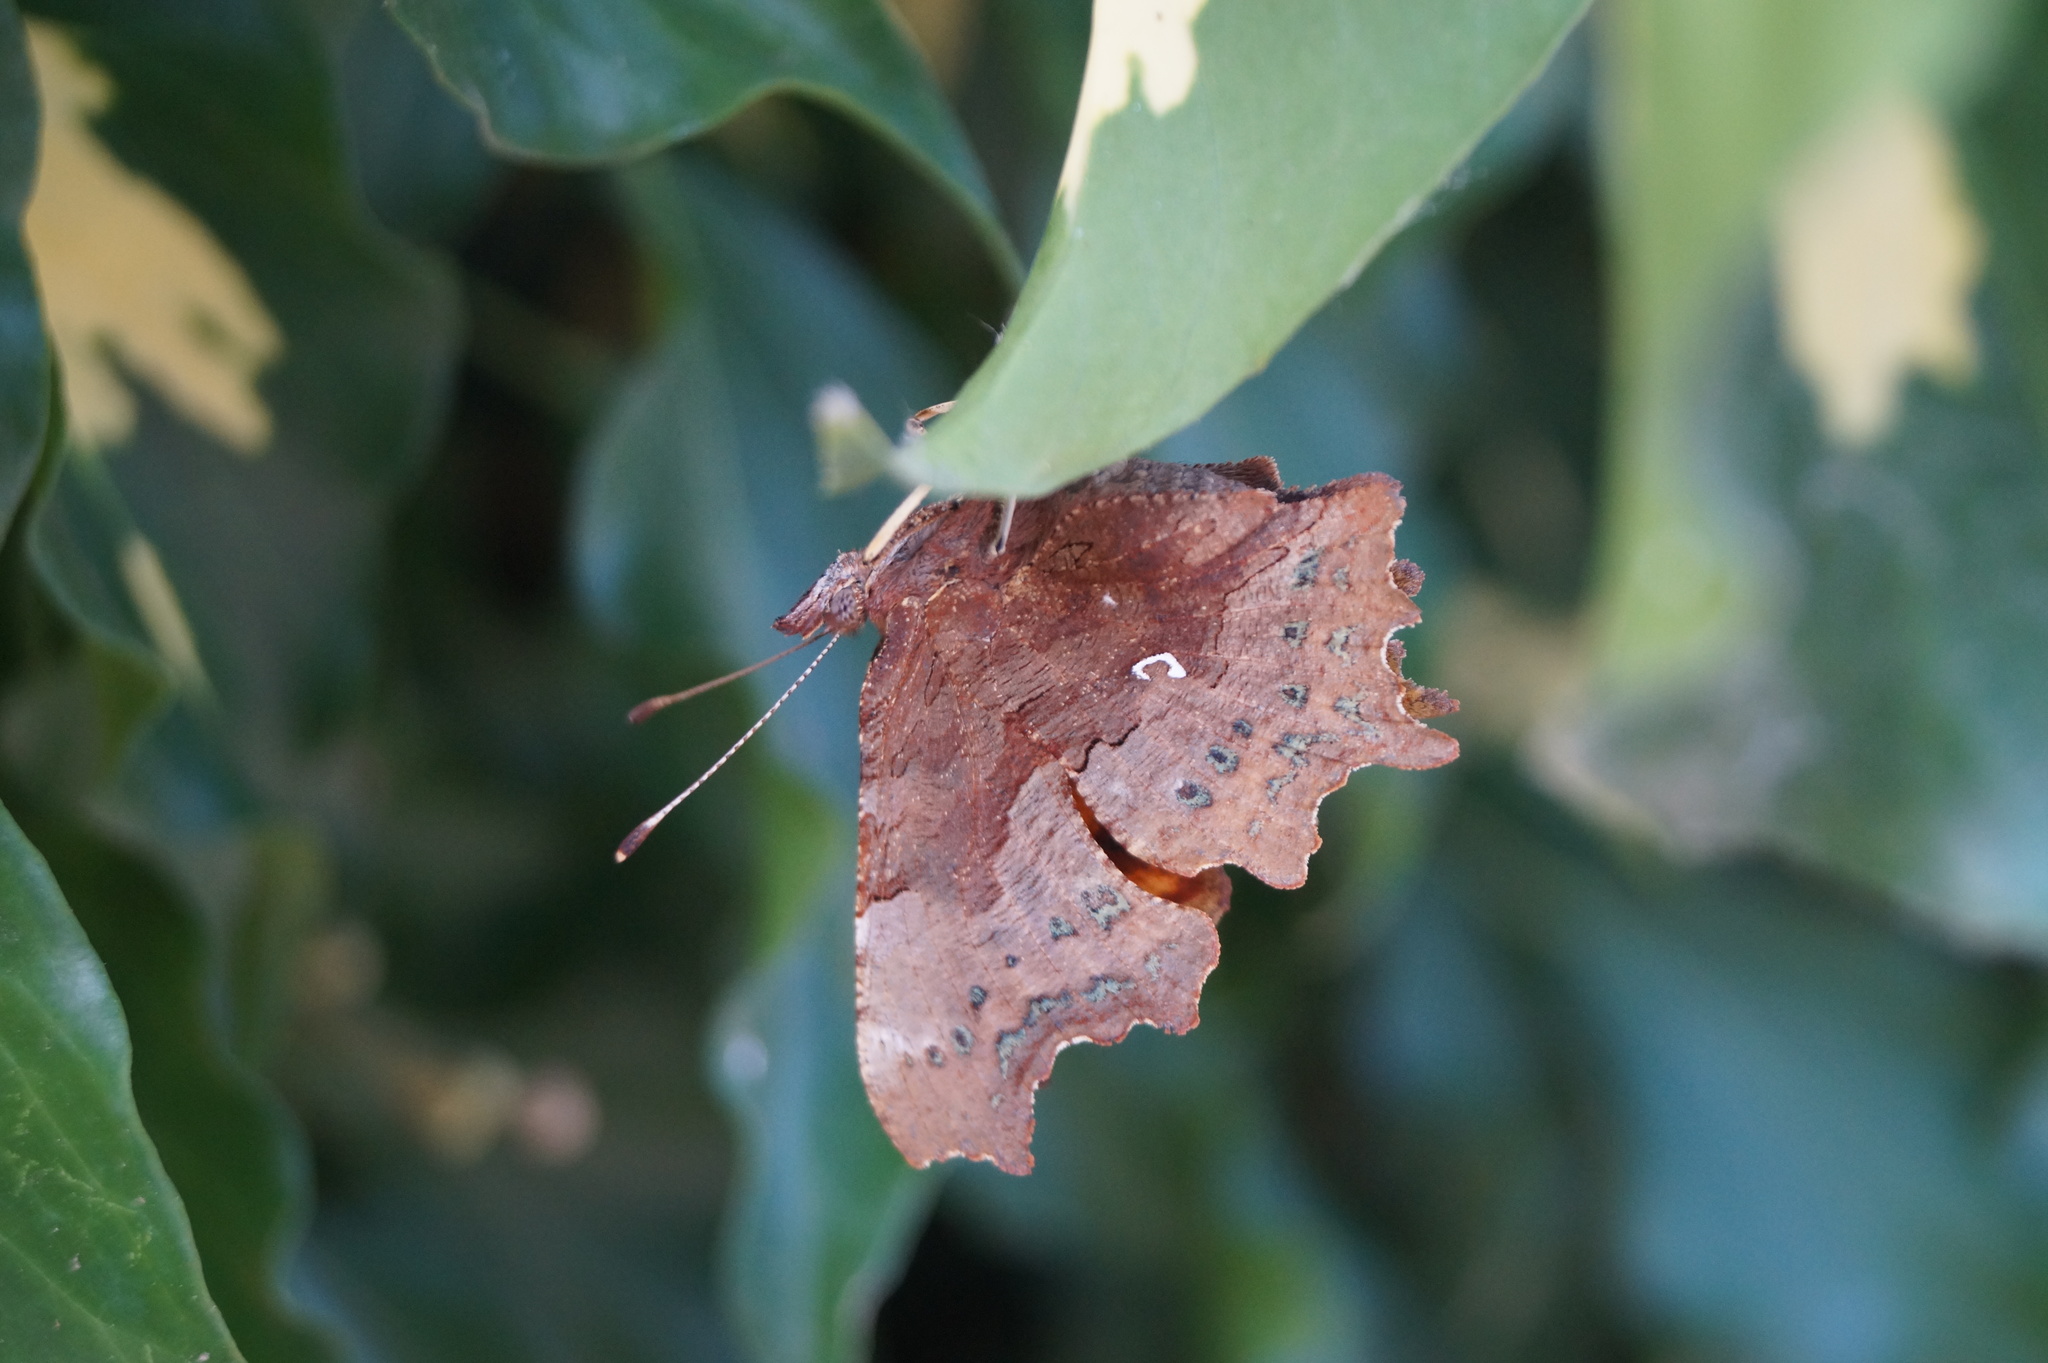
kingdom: Animalia
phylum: Arthropoda
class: Insecta
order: Lepidoptera
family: Nymphalidae
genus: Polygonia
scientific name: Polygonia c-album
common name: Comma
